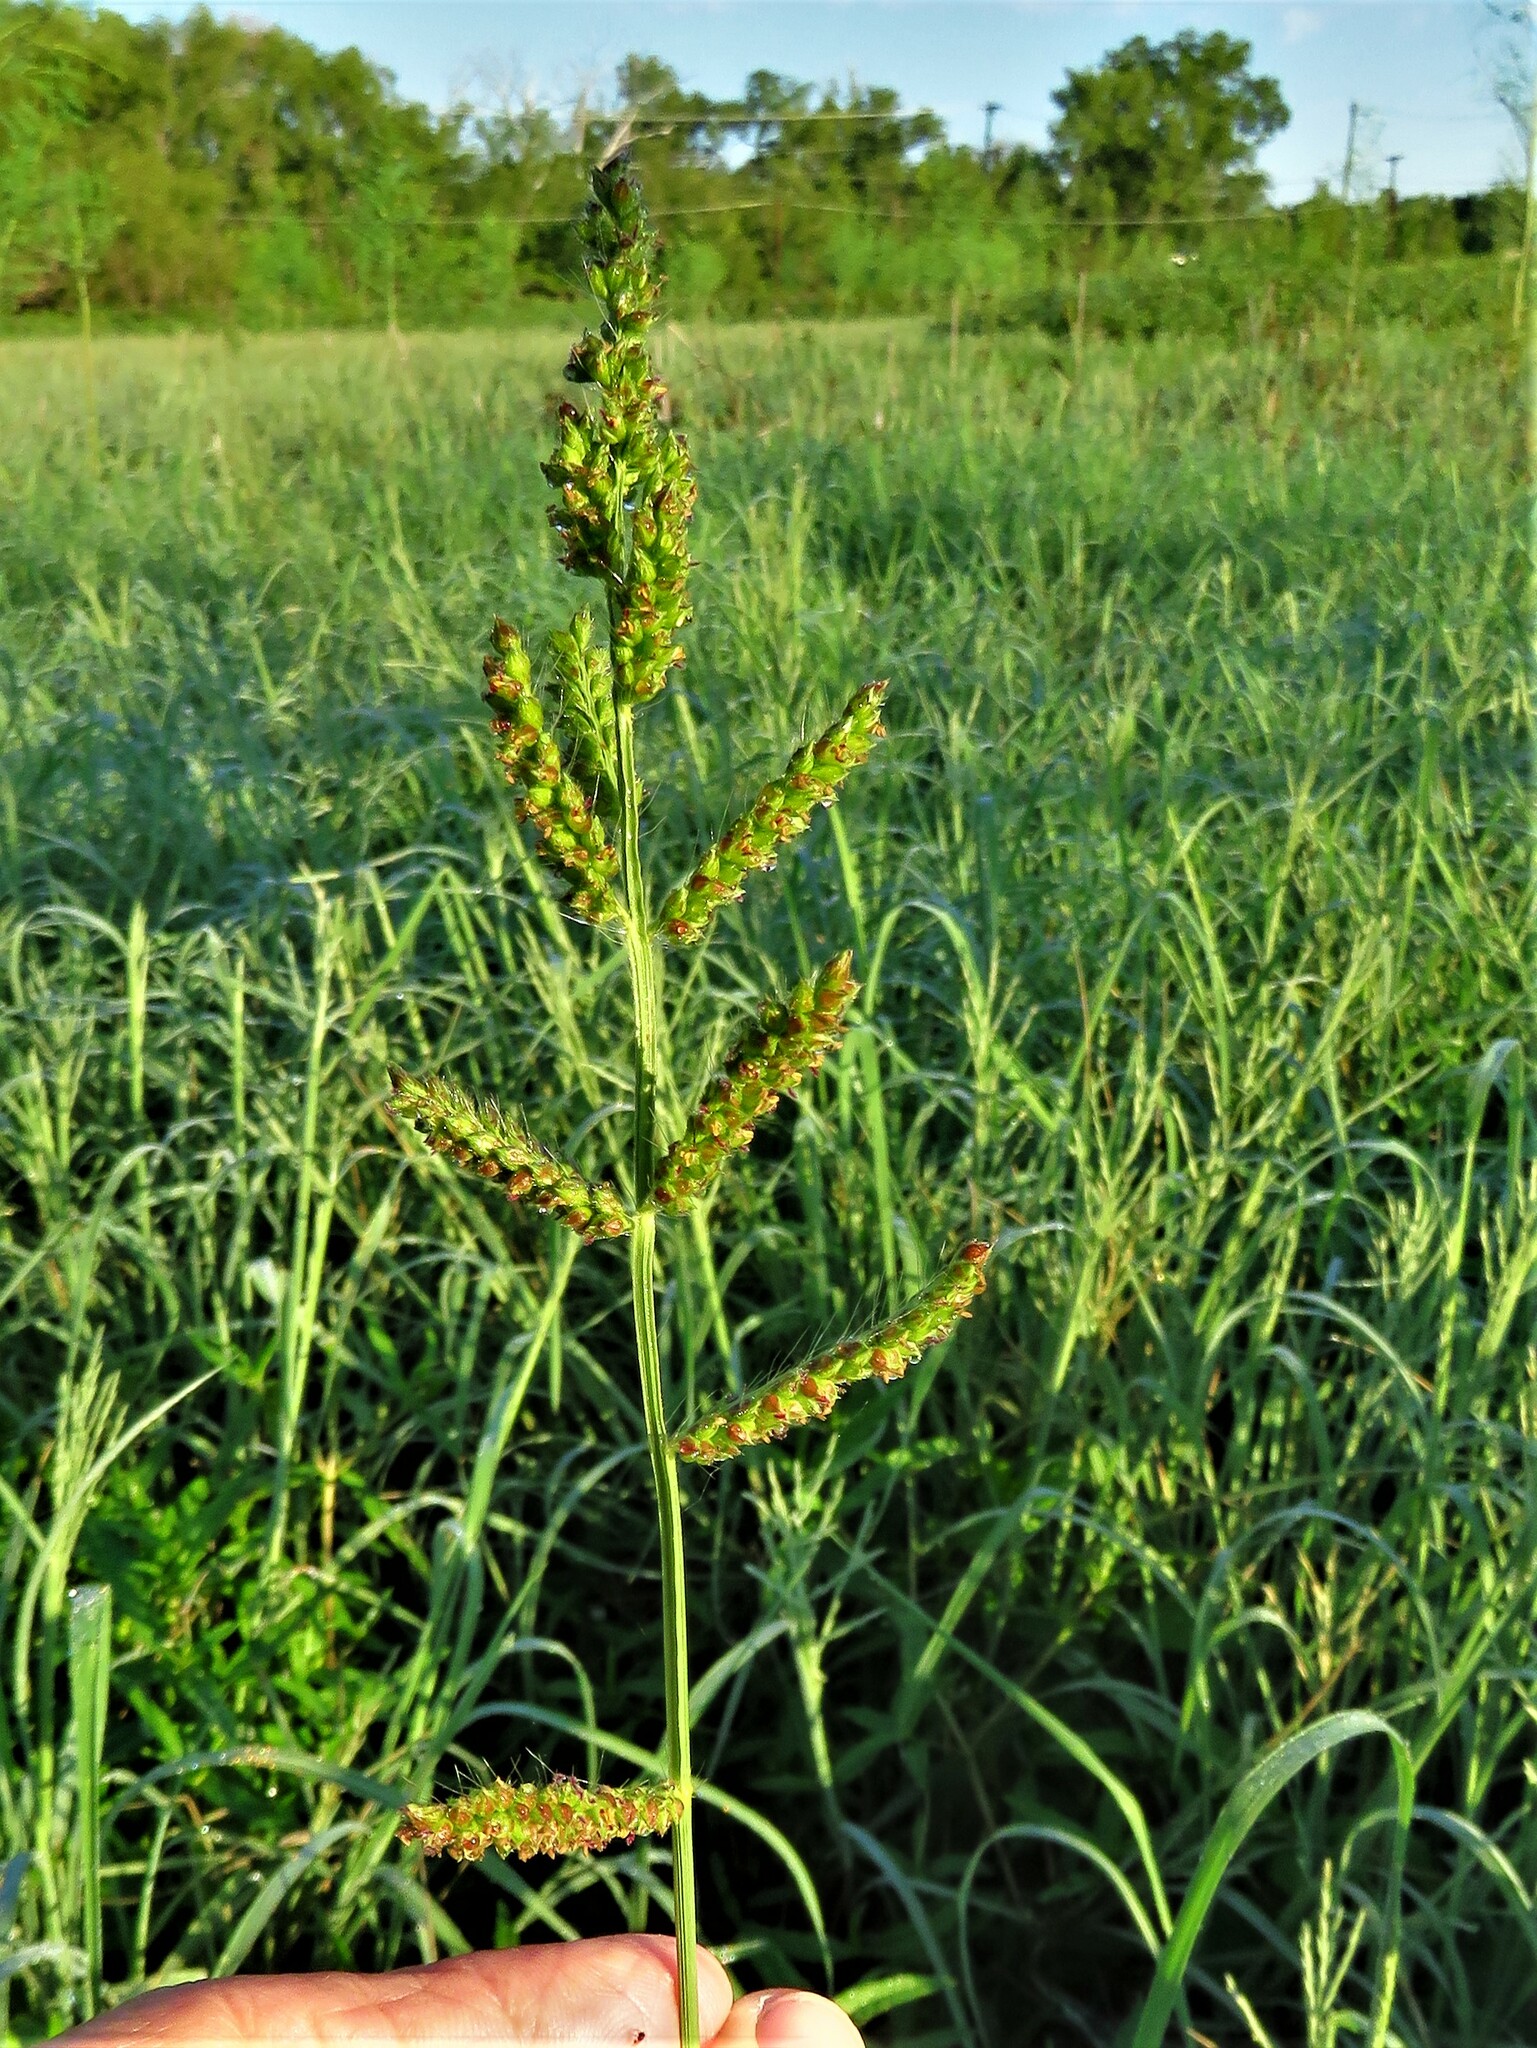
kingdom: Plantae
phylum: Tracheophyta
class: Liliopsida
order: Poales
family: Poaceae
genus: Echinochloa
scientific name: Echinochloa crus-galli
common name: Cockspur
